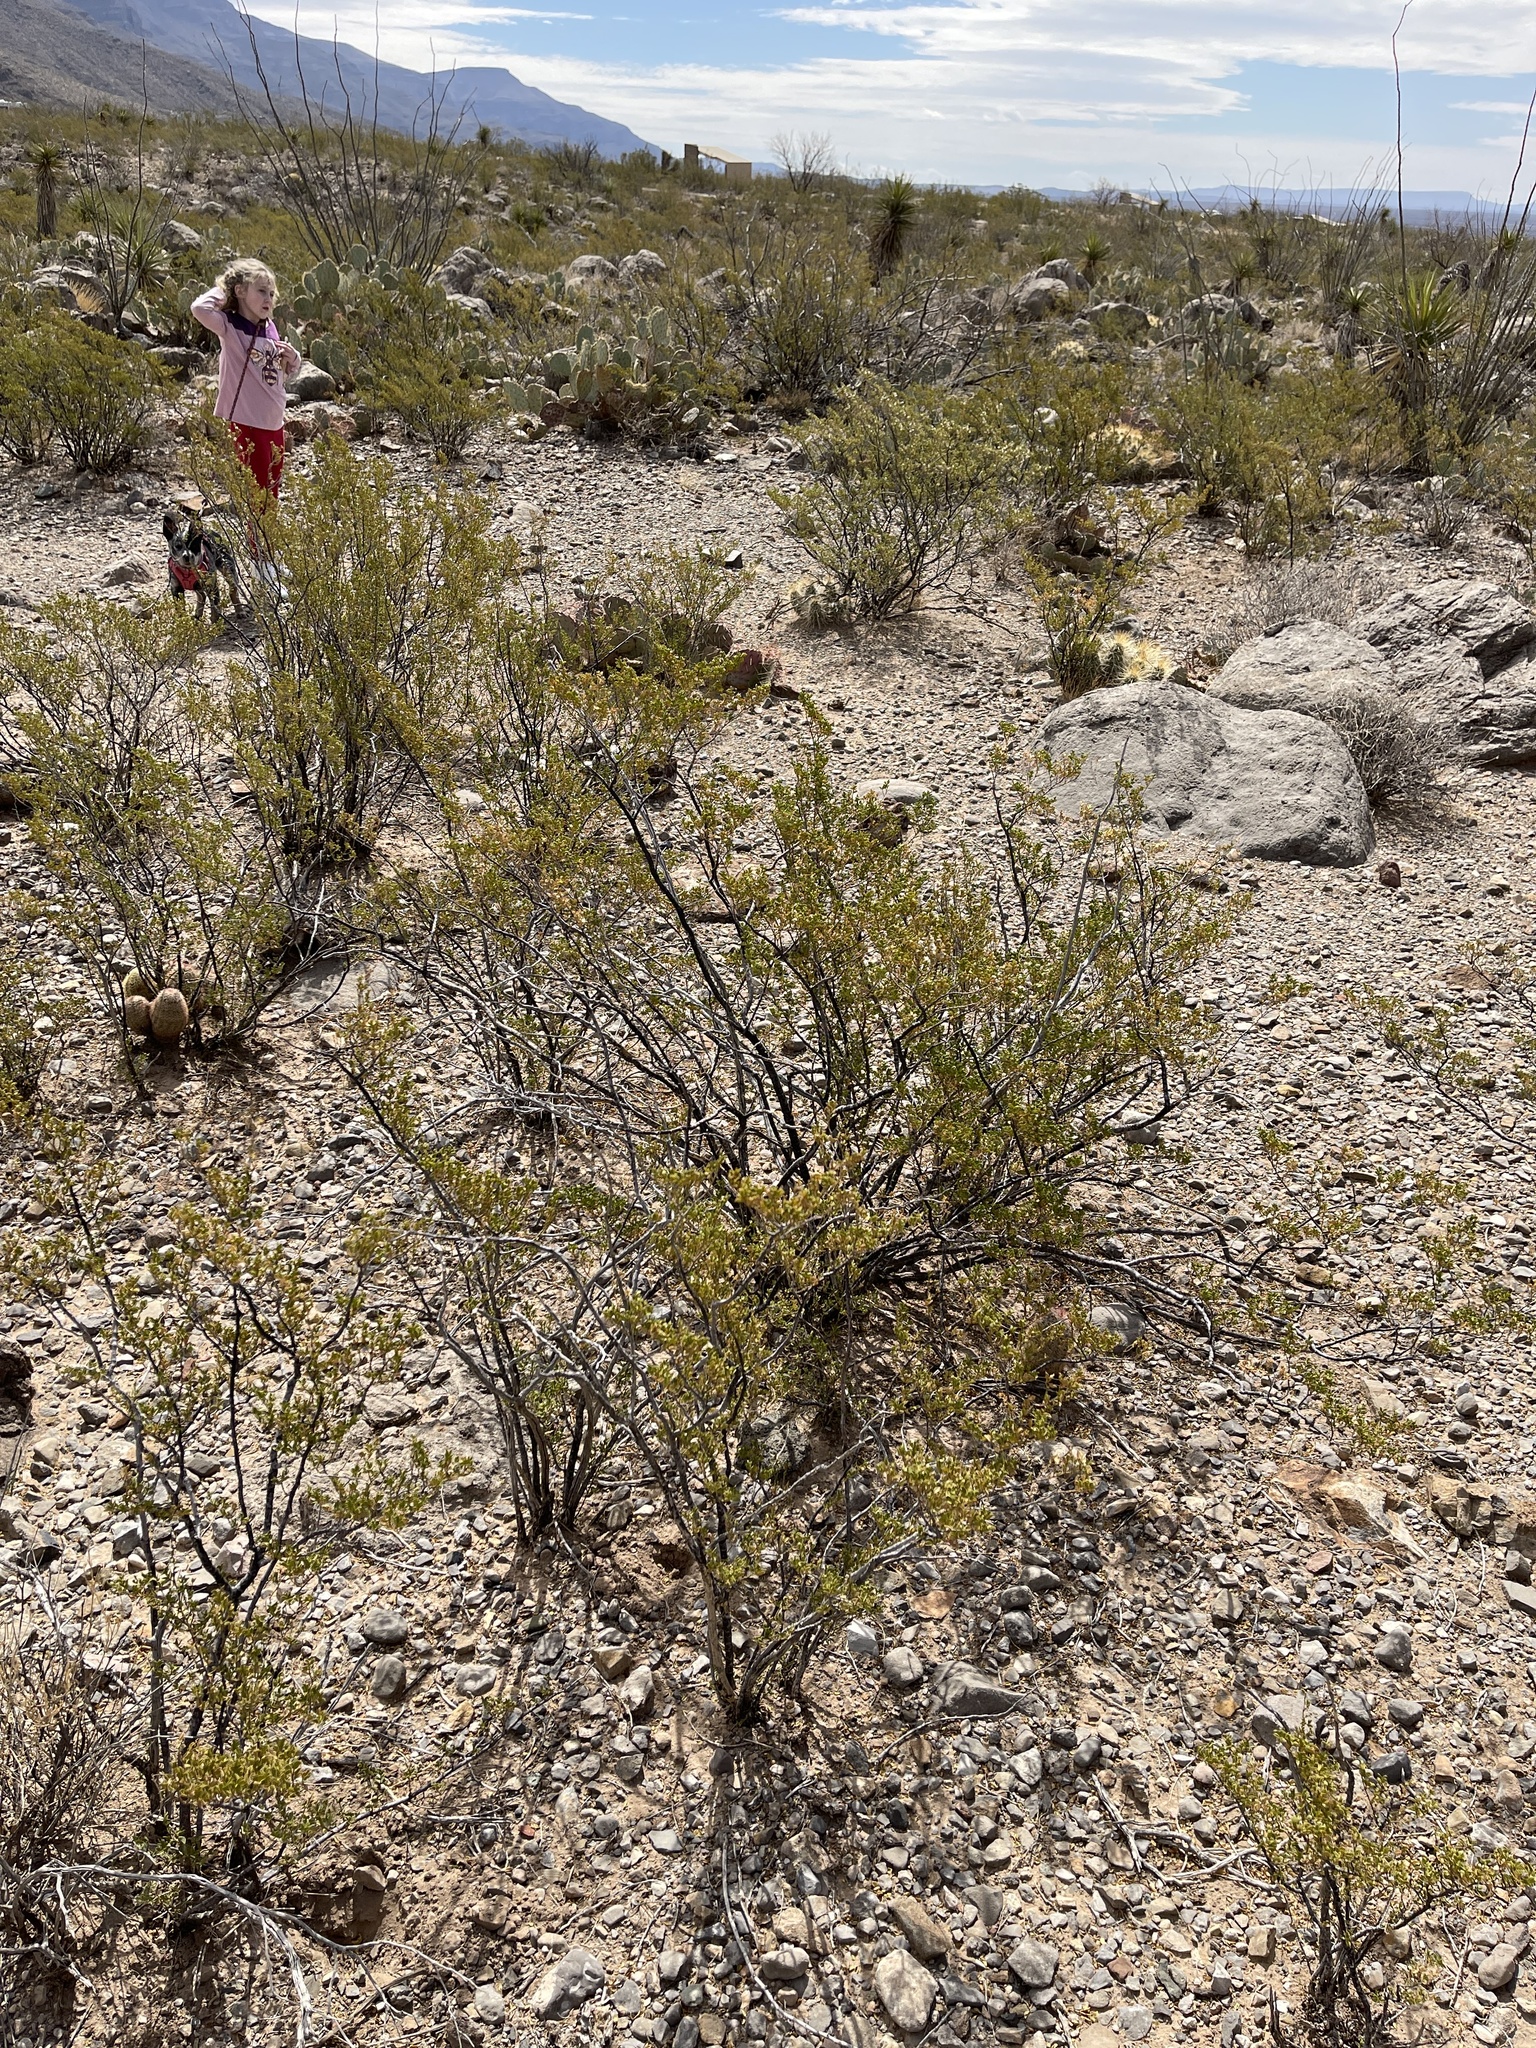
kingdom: Plantae
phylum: Tracheophyta
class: Magnoliopsida
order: Zygophyllales
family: Zygophyllaceae
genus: Larrea
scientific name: Larrea tridentata
